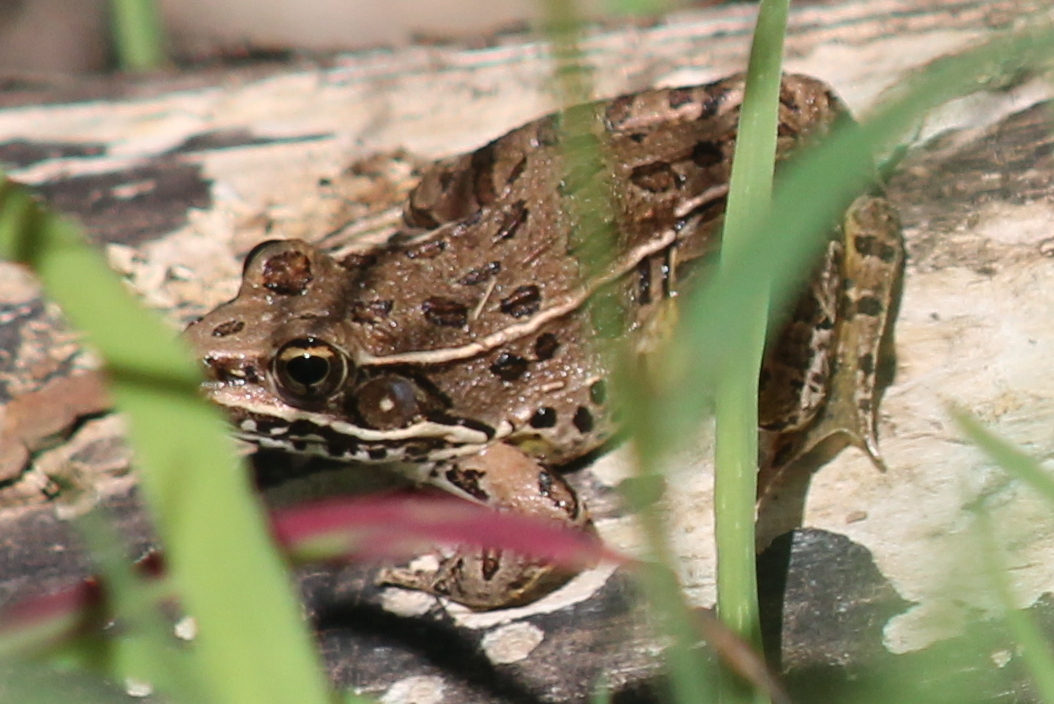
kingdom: Animalia
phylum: Chordata
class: Amphibia
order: Anura
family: Ranidae
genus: Lithobates
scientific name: Lithobates blairi
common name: Plains leopard frog
